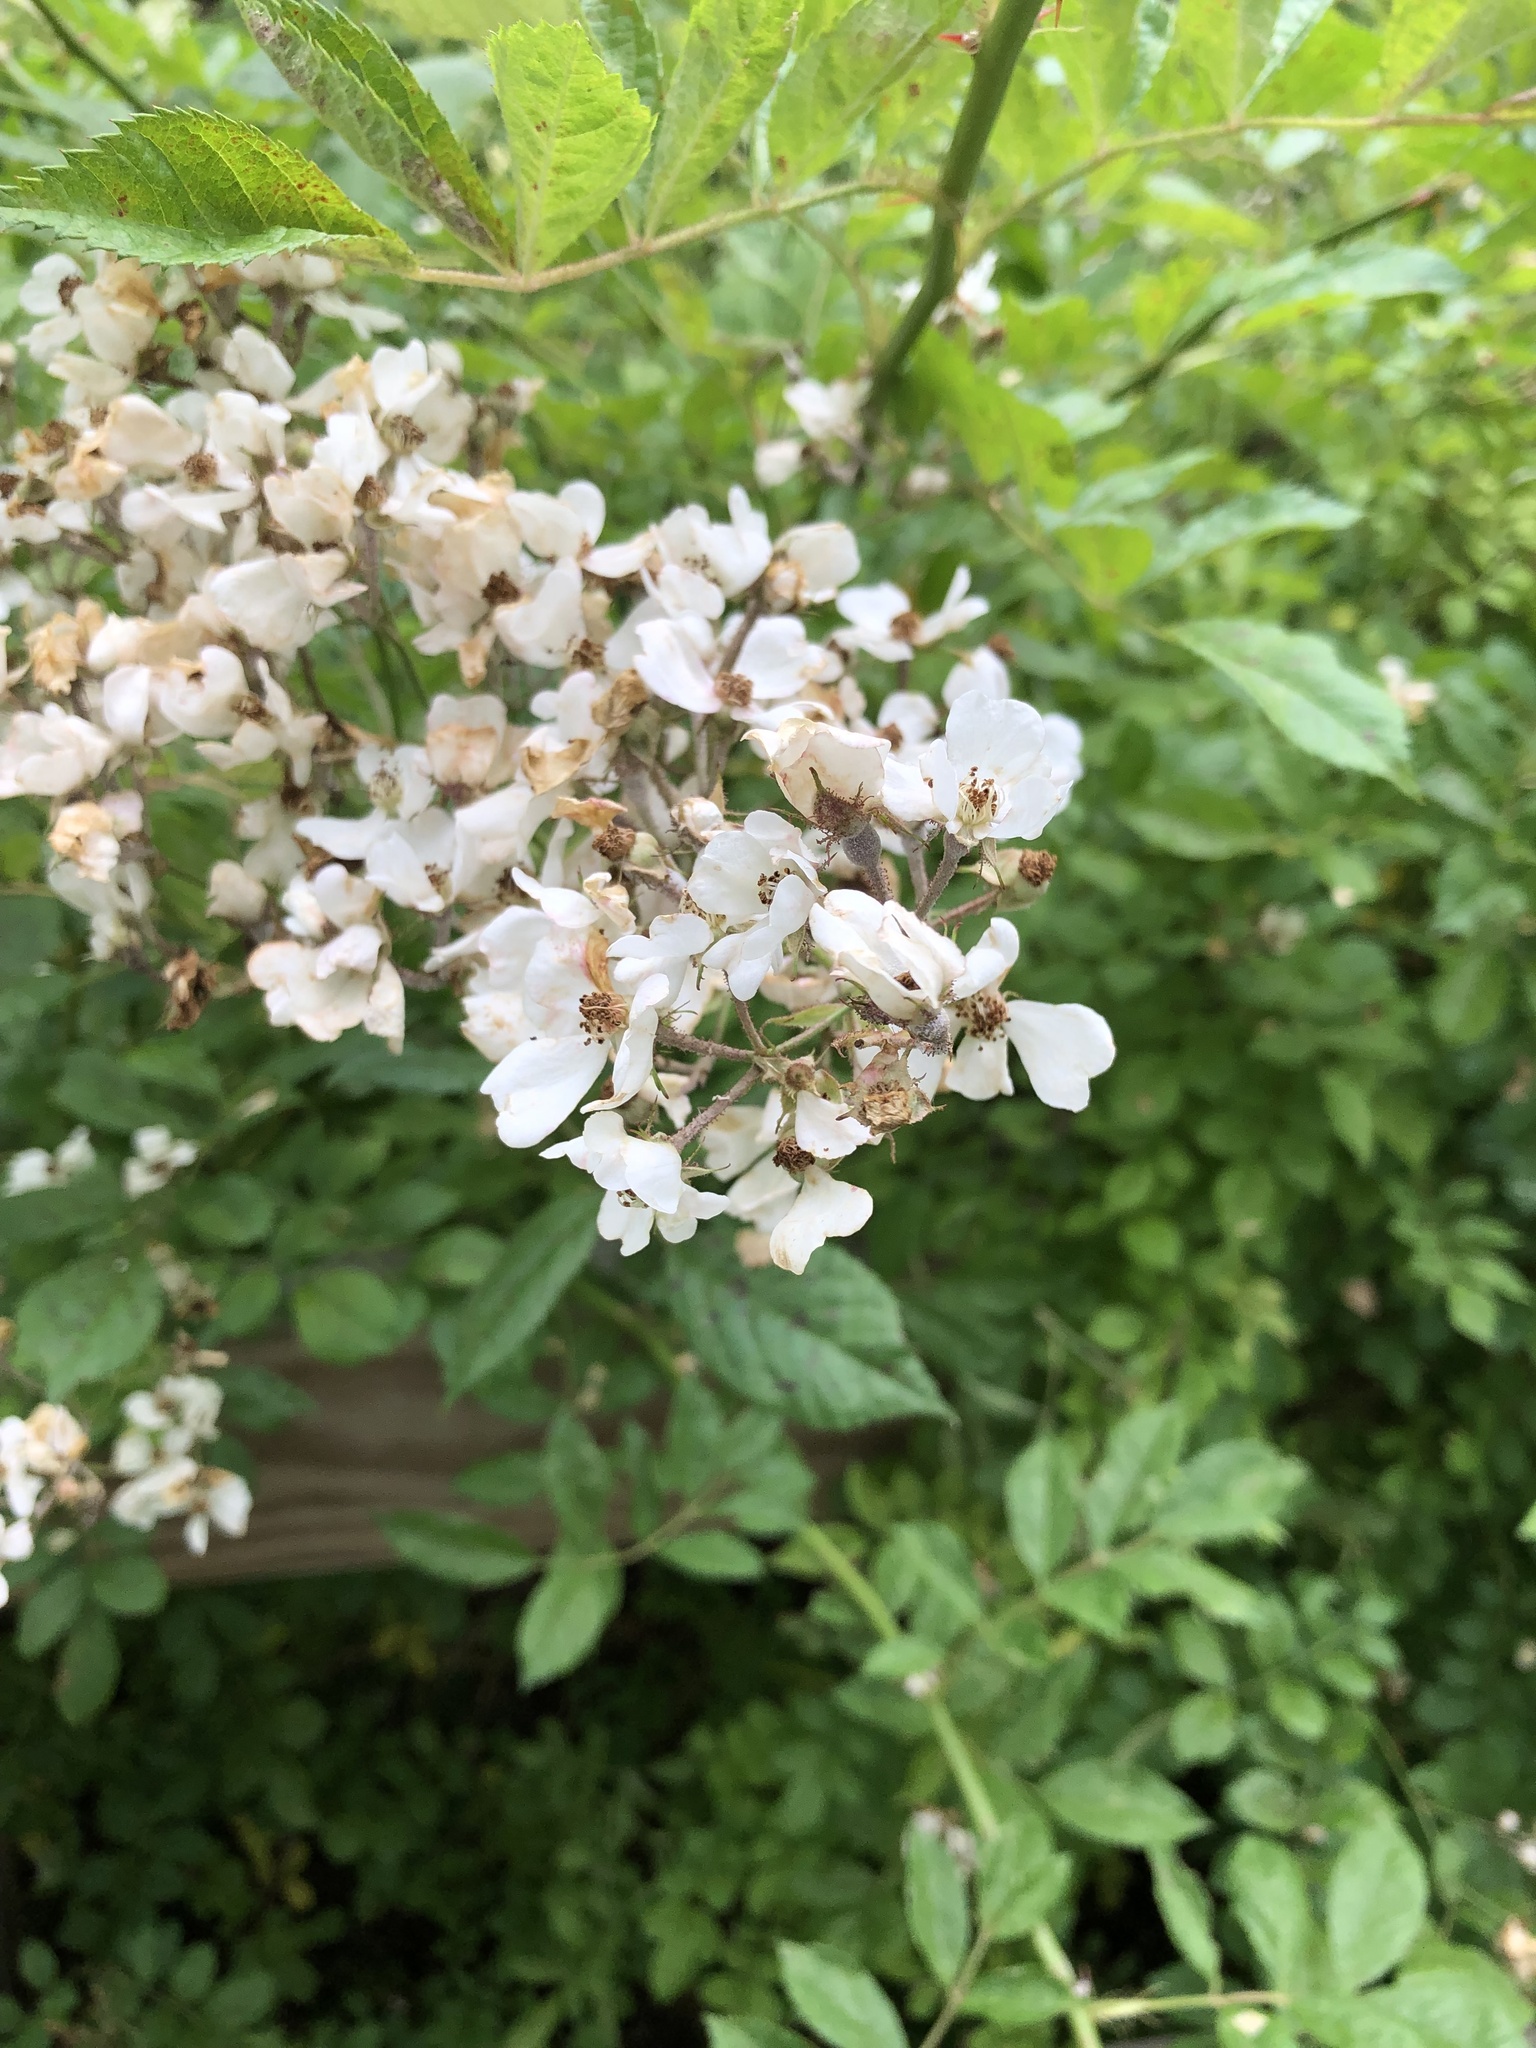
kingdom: Plantae
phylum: Tracheophyta
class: Magnoliopsida
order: Rosales
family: Rosaceae
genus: Rosa
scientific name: Rosa multiflora
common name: Multiflora rose
